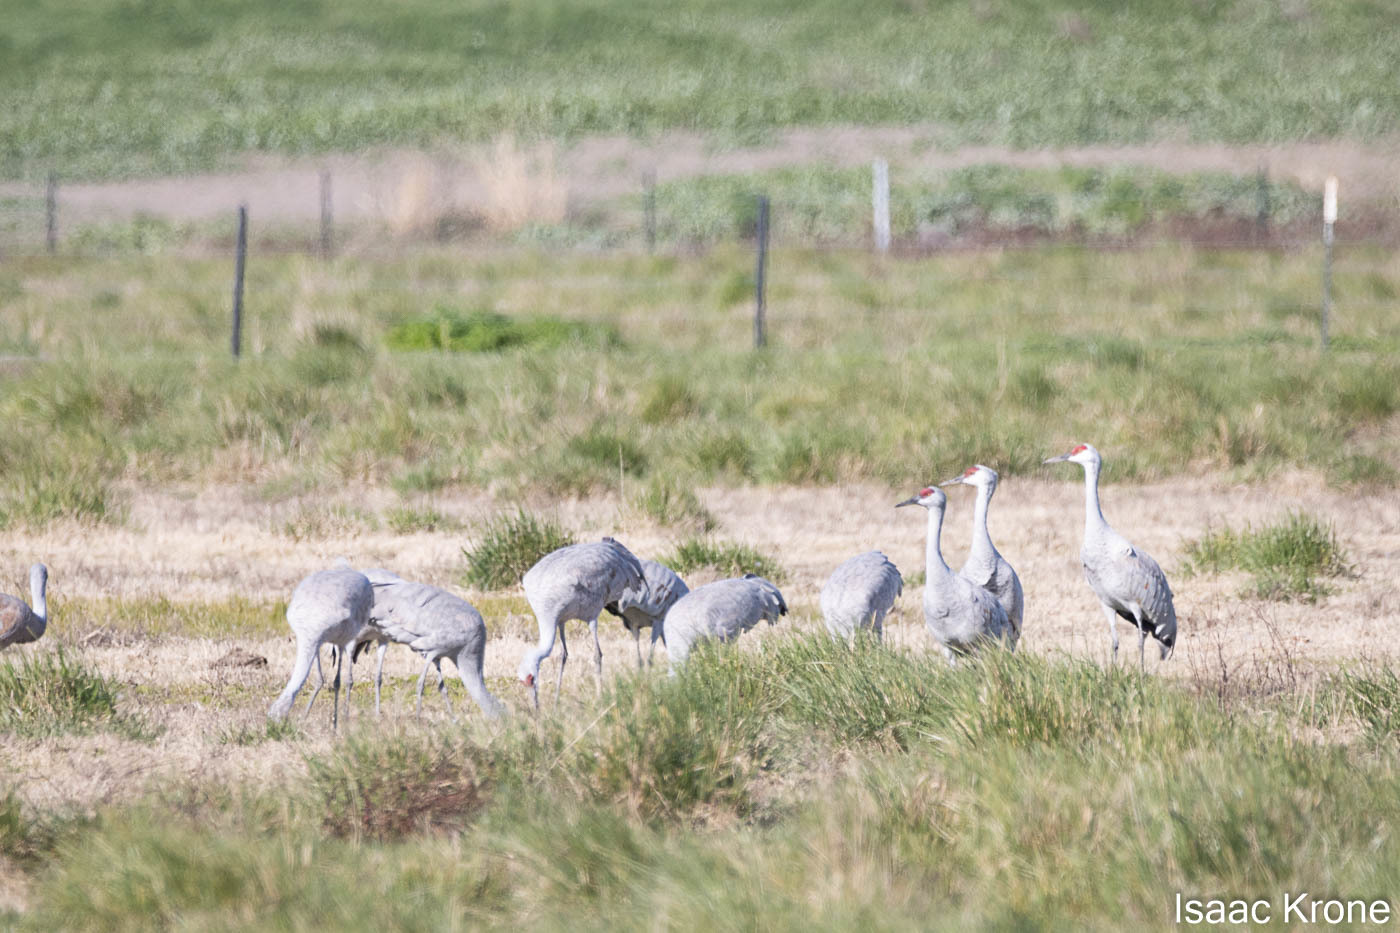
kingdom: Animalia
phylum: Chordata
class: Aves
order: Gruiformes
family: Gruidae
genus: Grus
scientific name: Grus canadensis
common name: Sandhill crane
